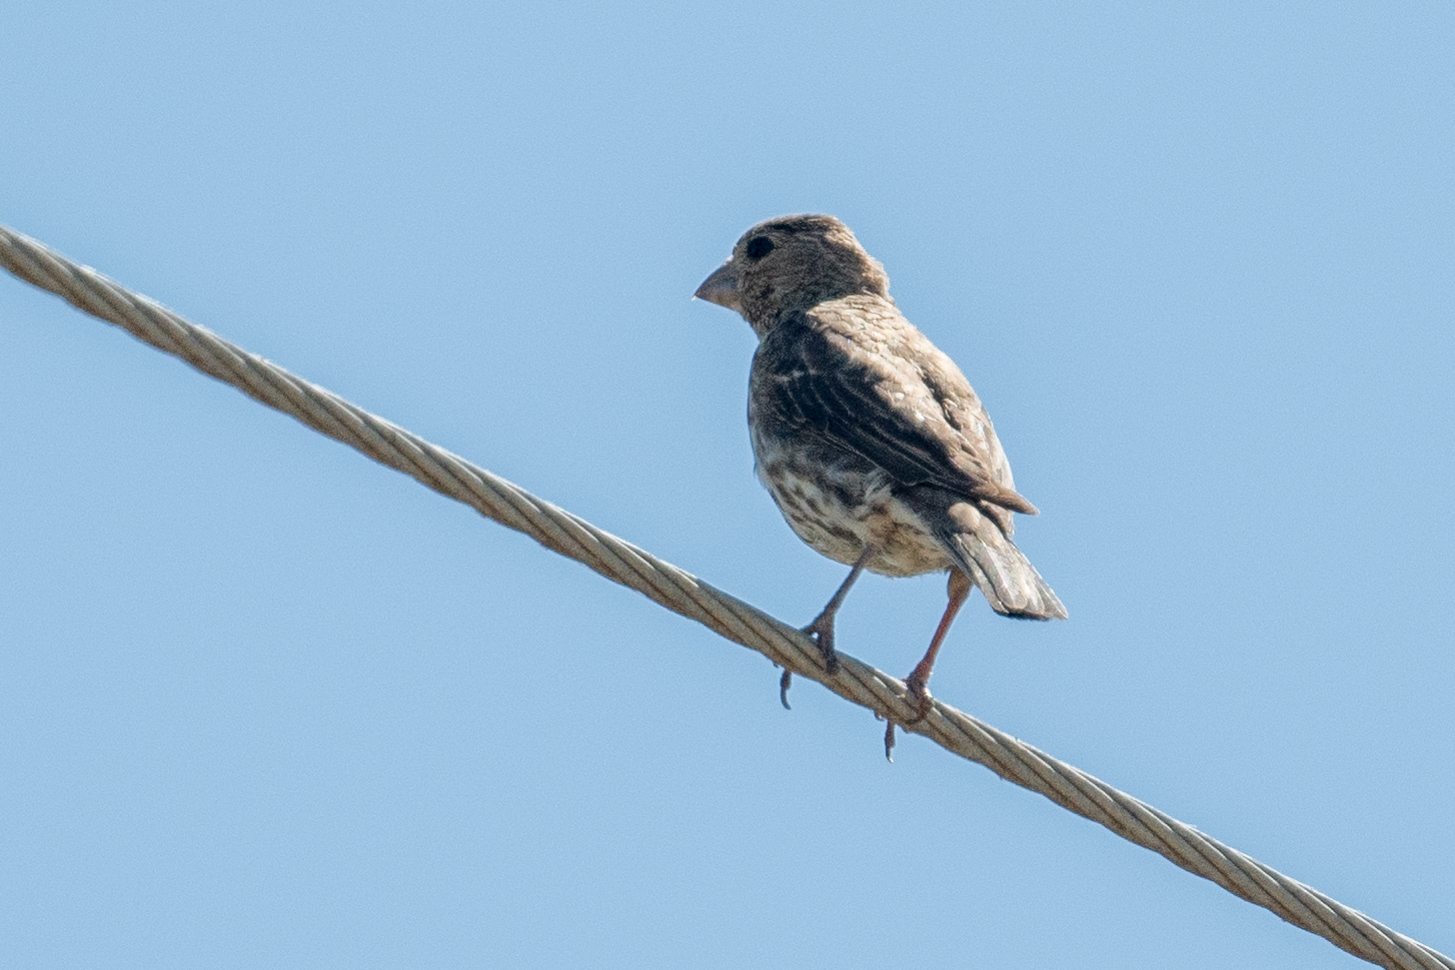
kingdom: Animalia
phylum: Chordata
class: Aves
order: Passeriformes
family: Fringillidae
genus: Haemorhous
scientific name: Haemorhous mexicanus
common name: House finch
